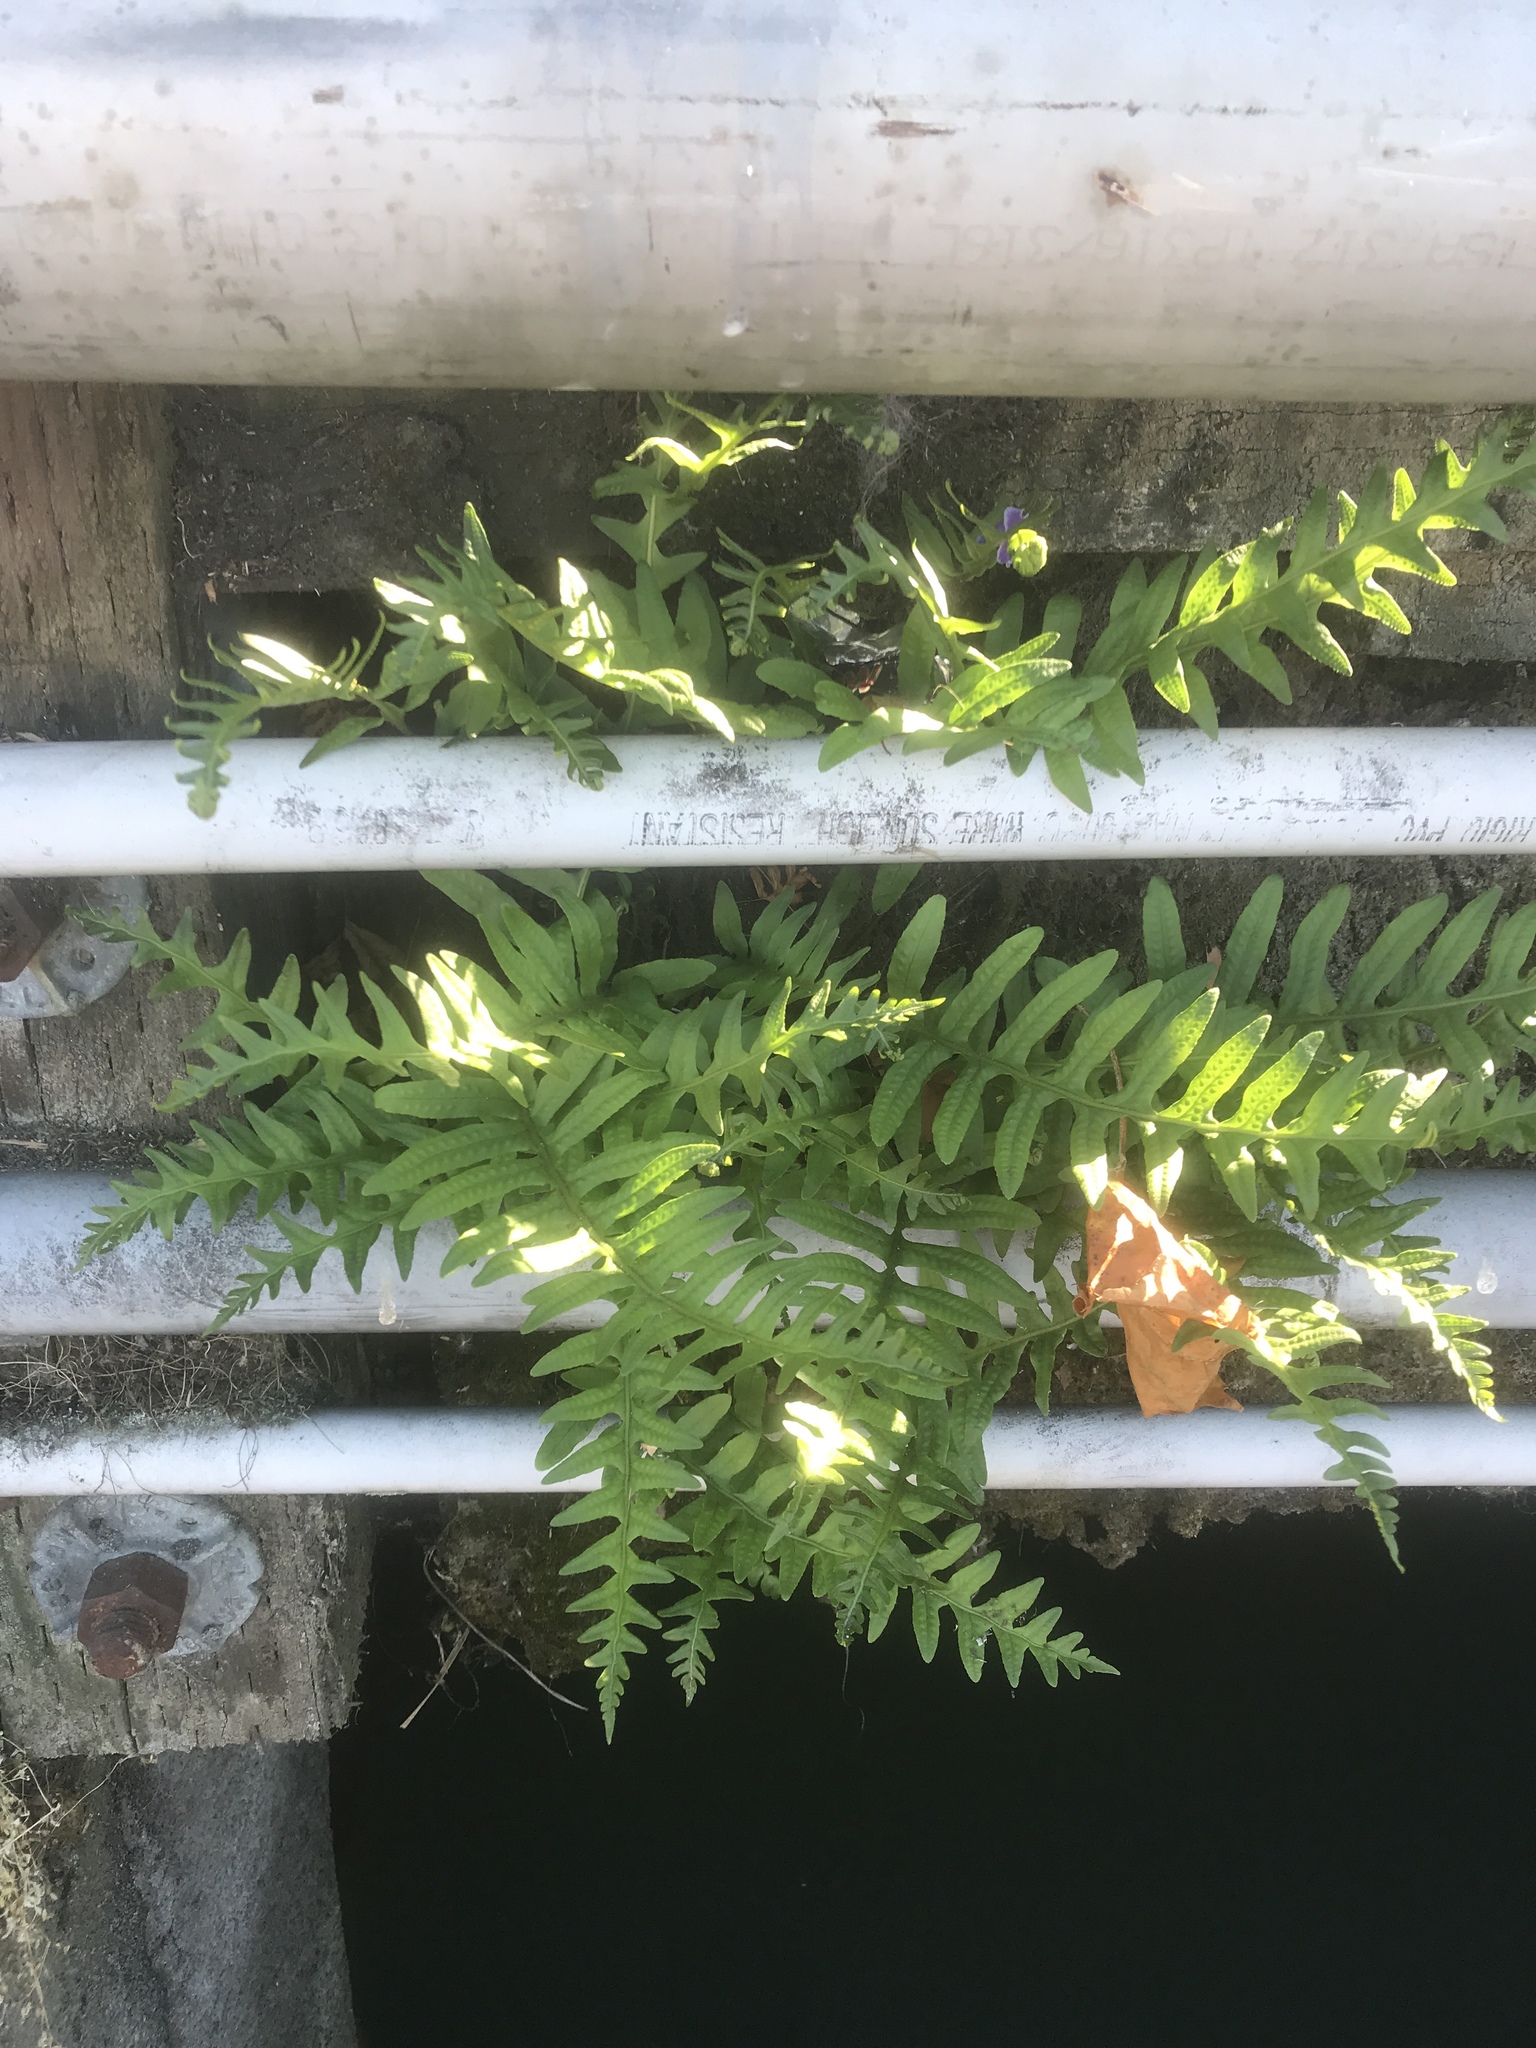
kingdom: Plantae
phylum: Tracheophyta
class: Polypodiopsida
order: Polypodiales
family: Polypodiaceae
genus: Polypodium
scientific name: Polypodium californicum
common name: California polypody
